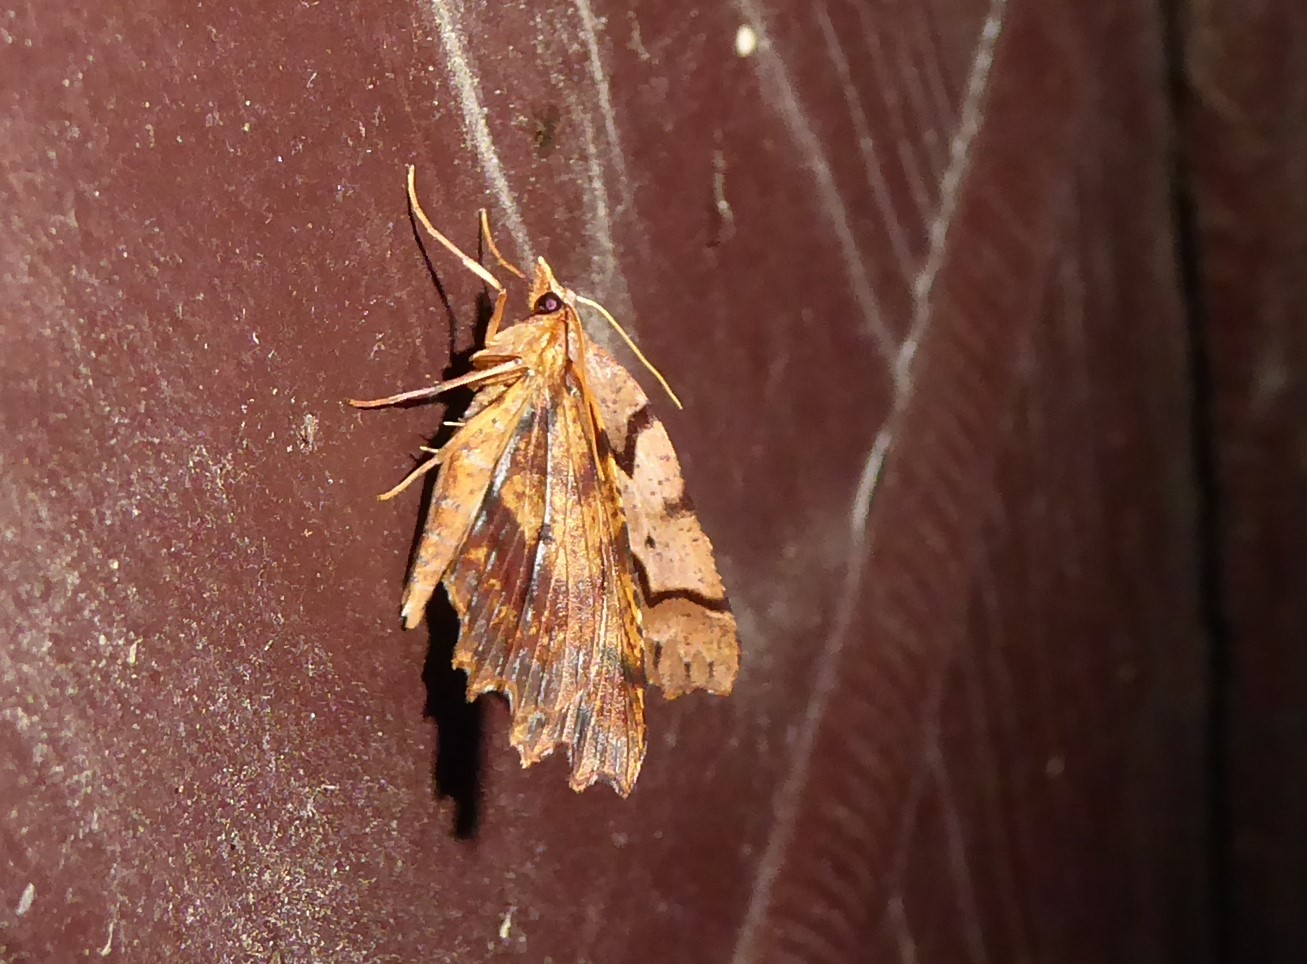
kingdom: Animalia
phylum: Arthropoda
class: Insecta
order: Lepidoptera
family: Geometridae
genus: Ischalis
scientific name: Ischalis fortinata
